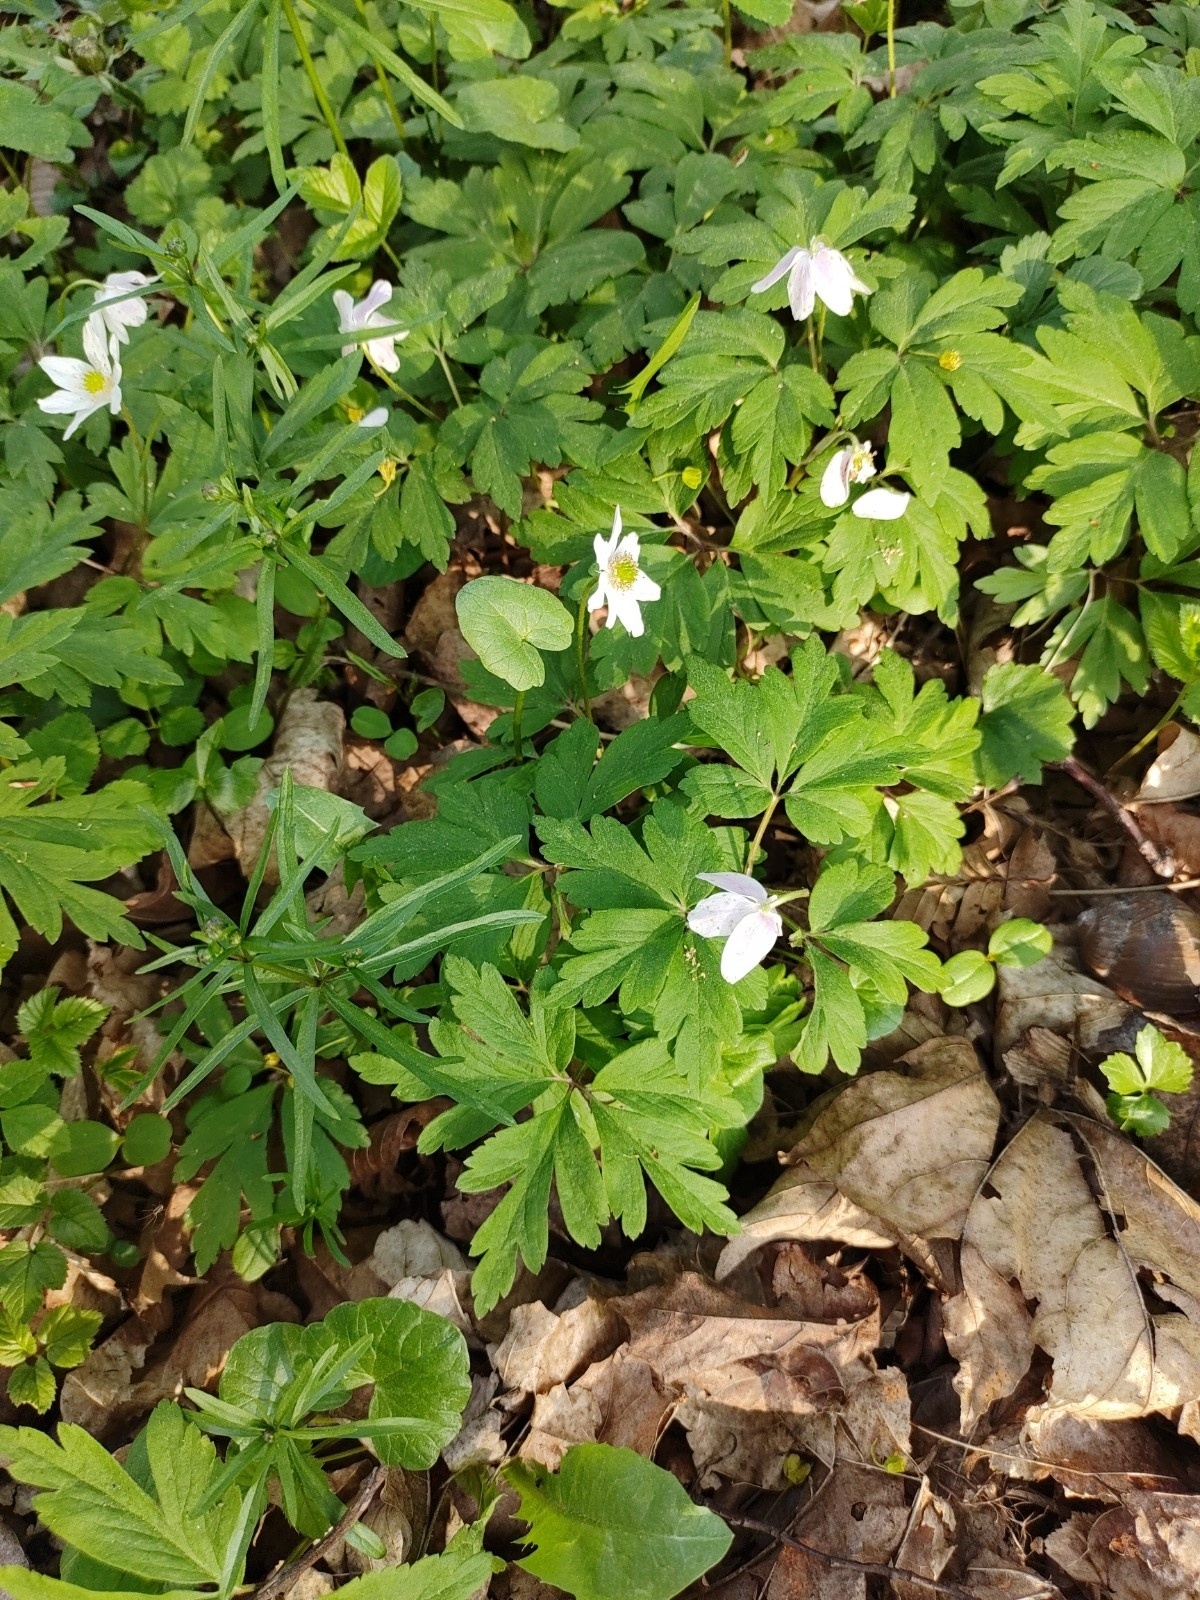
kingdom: Plantae
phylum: Tracheophyta
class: Magnoliopsida
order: Ranunculales
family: Ranunculaceae
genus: Anemone
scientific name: Anemone nemorosa
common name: Wood anemone
